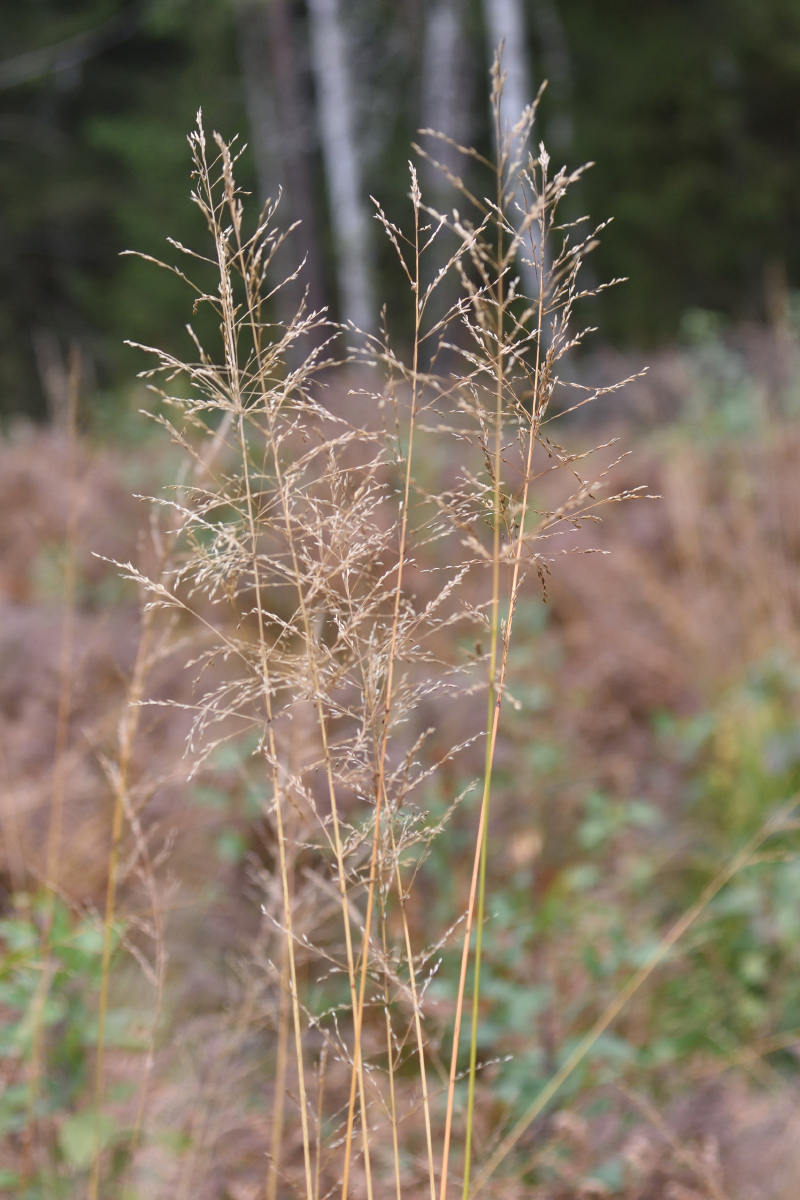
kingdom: Plantae
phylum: Tracheophyta
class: Liliopsida
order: Poales
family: Poaceae
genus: Molinia
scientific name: Molinia caerulea
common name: Purple moor-grass
